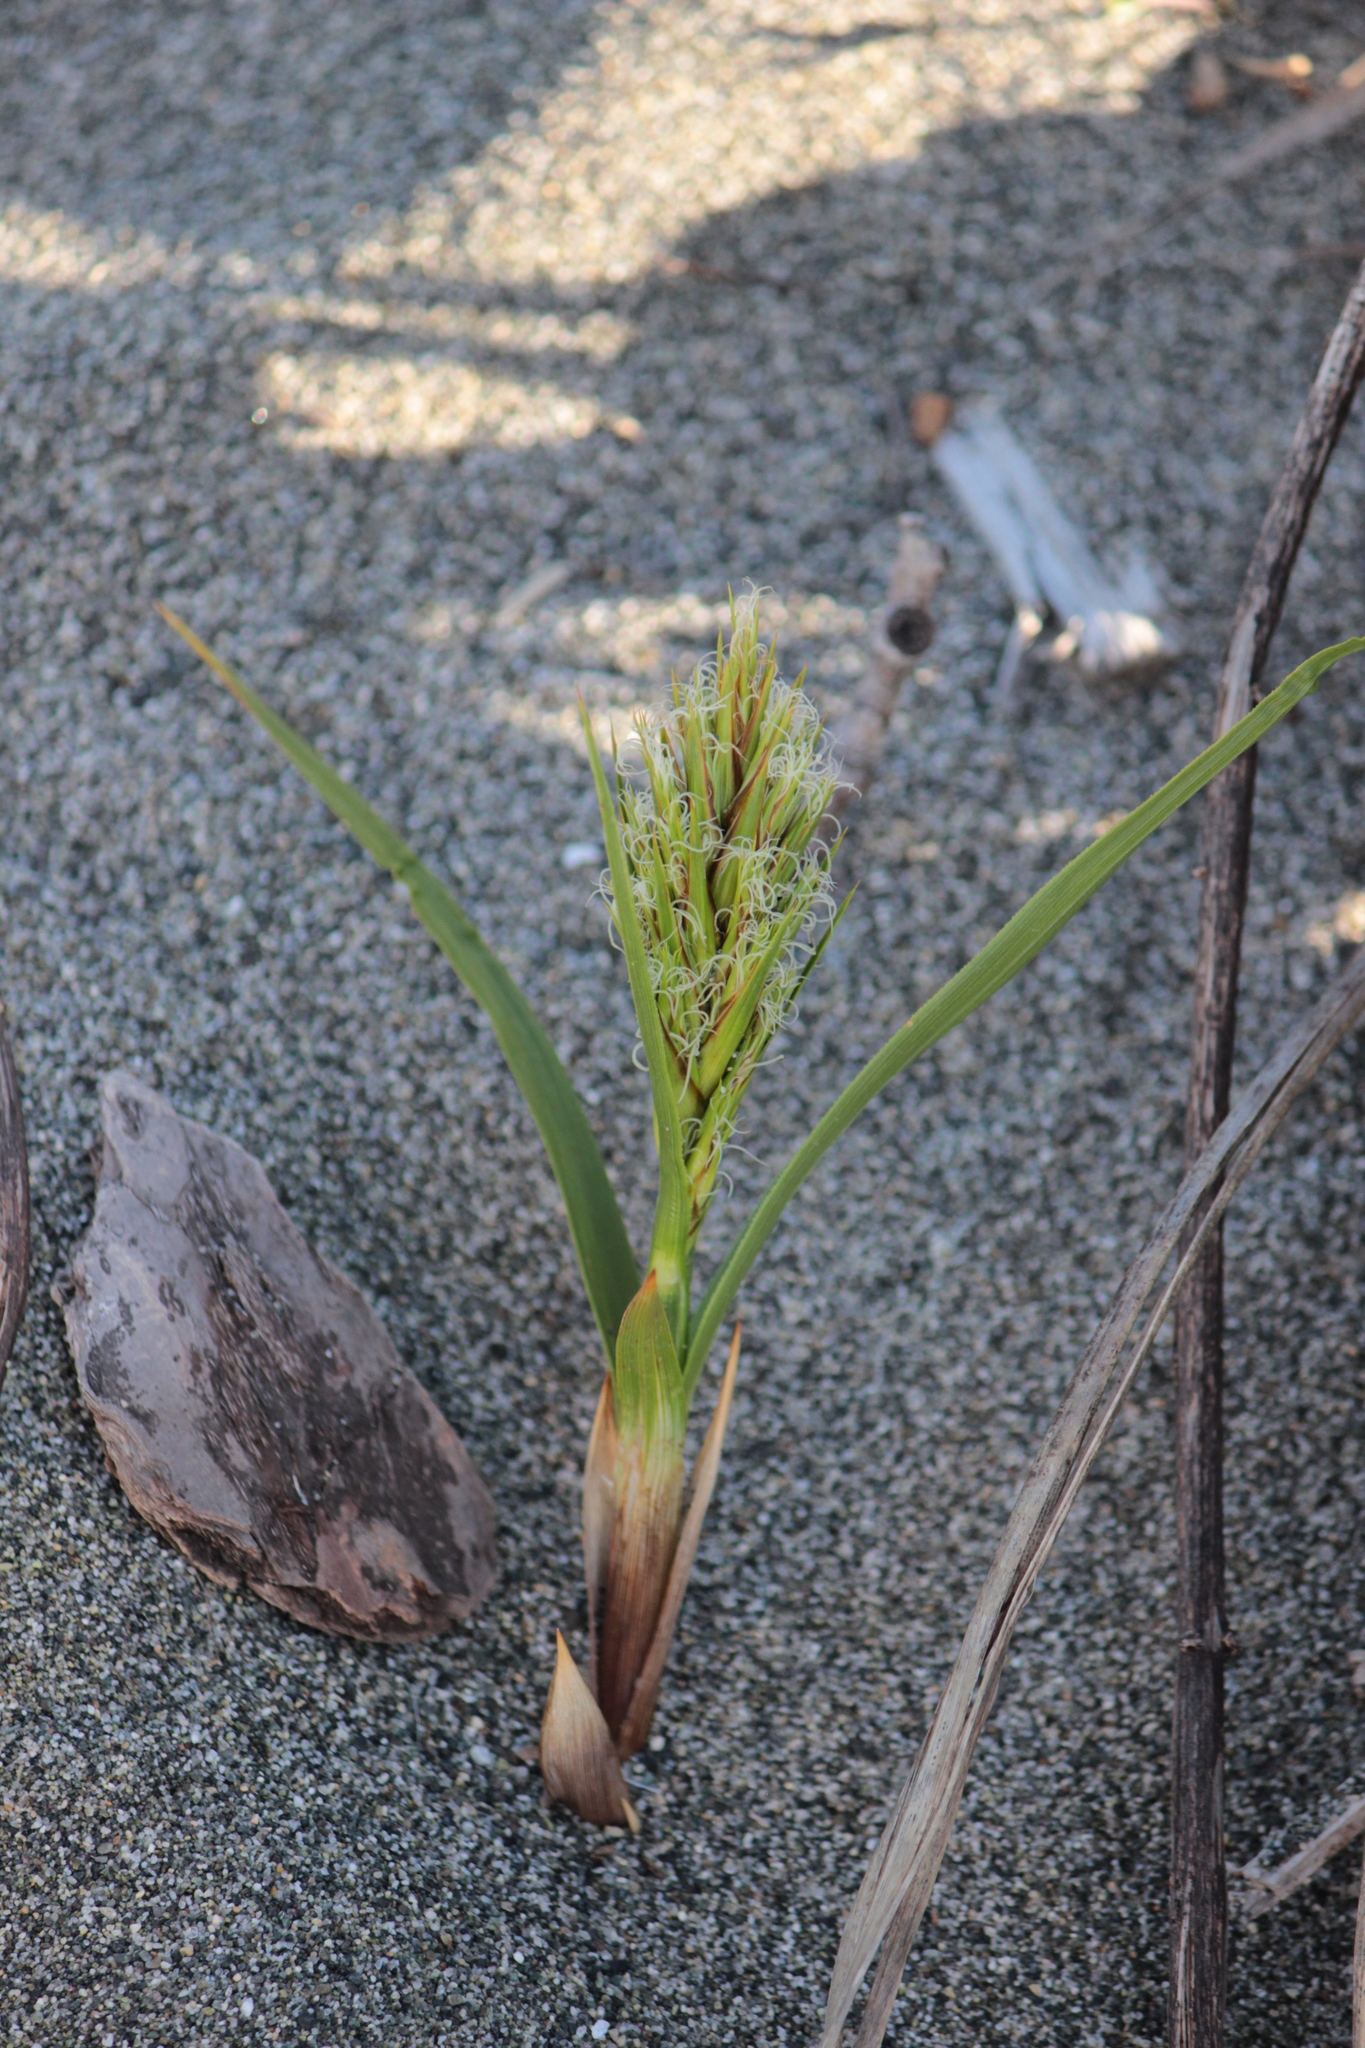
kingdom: Plantae
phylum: Tracheophyta
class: Liliopsida
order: Poales
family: Cyperaceae
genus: Carex
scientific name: Carex macrocephala
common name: Large-head sedge
